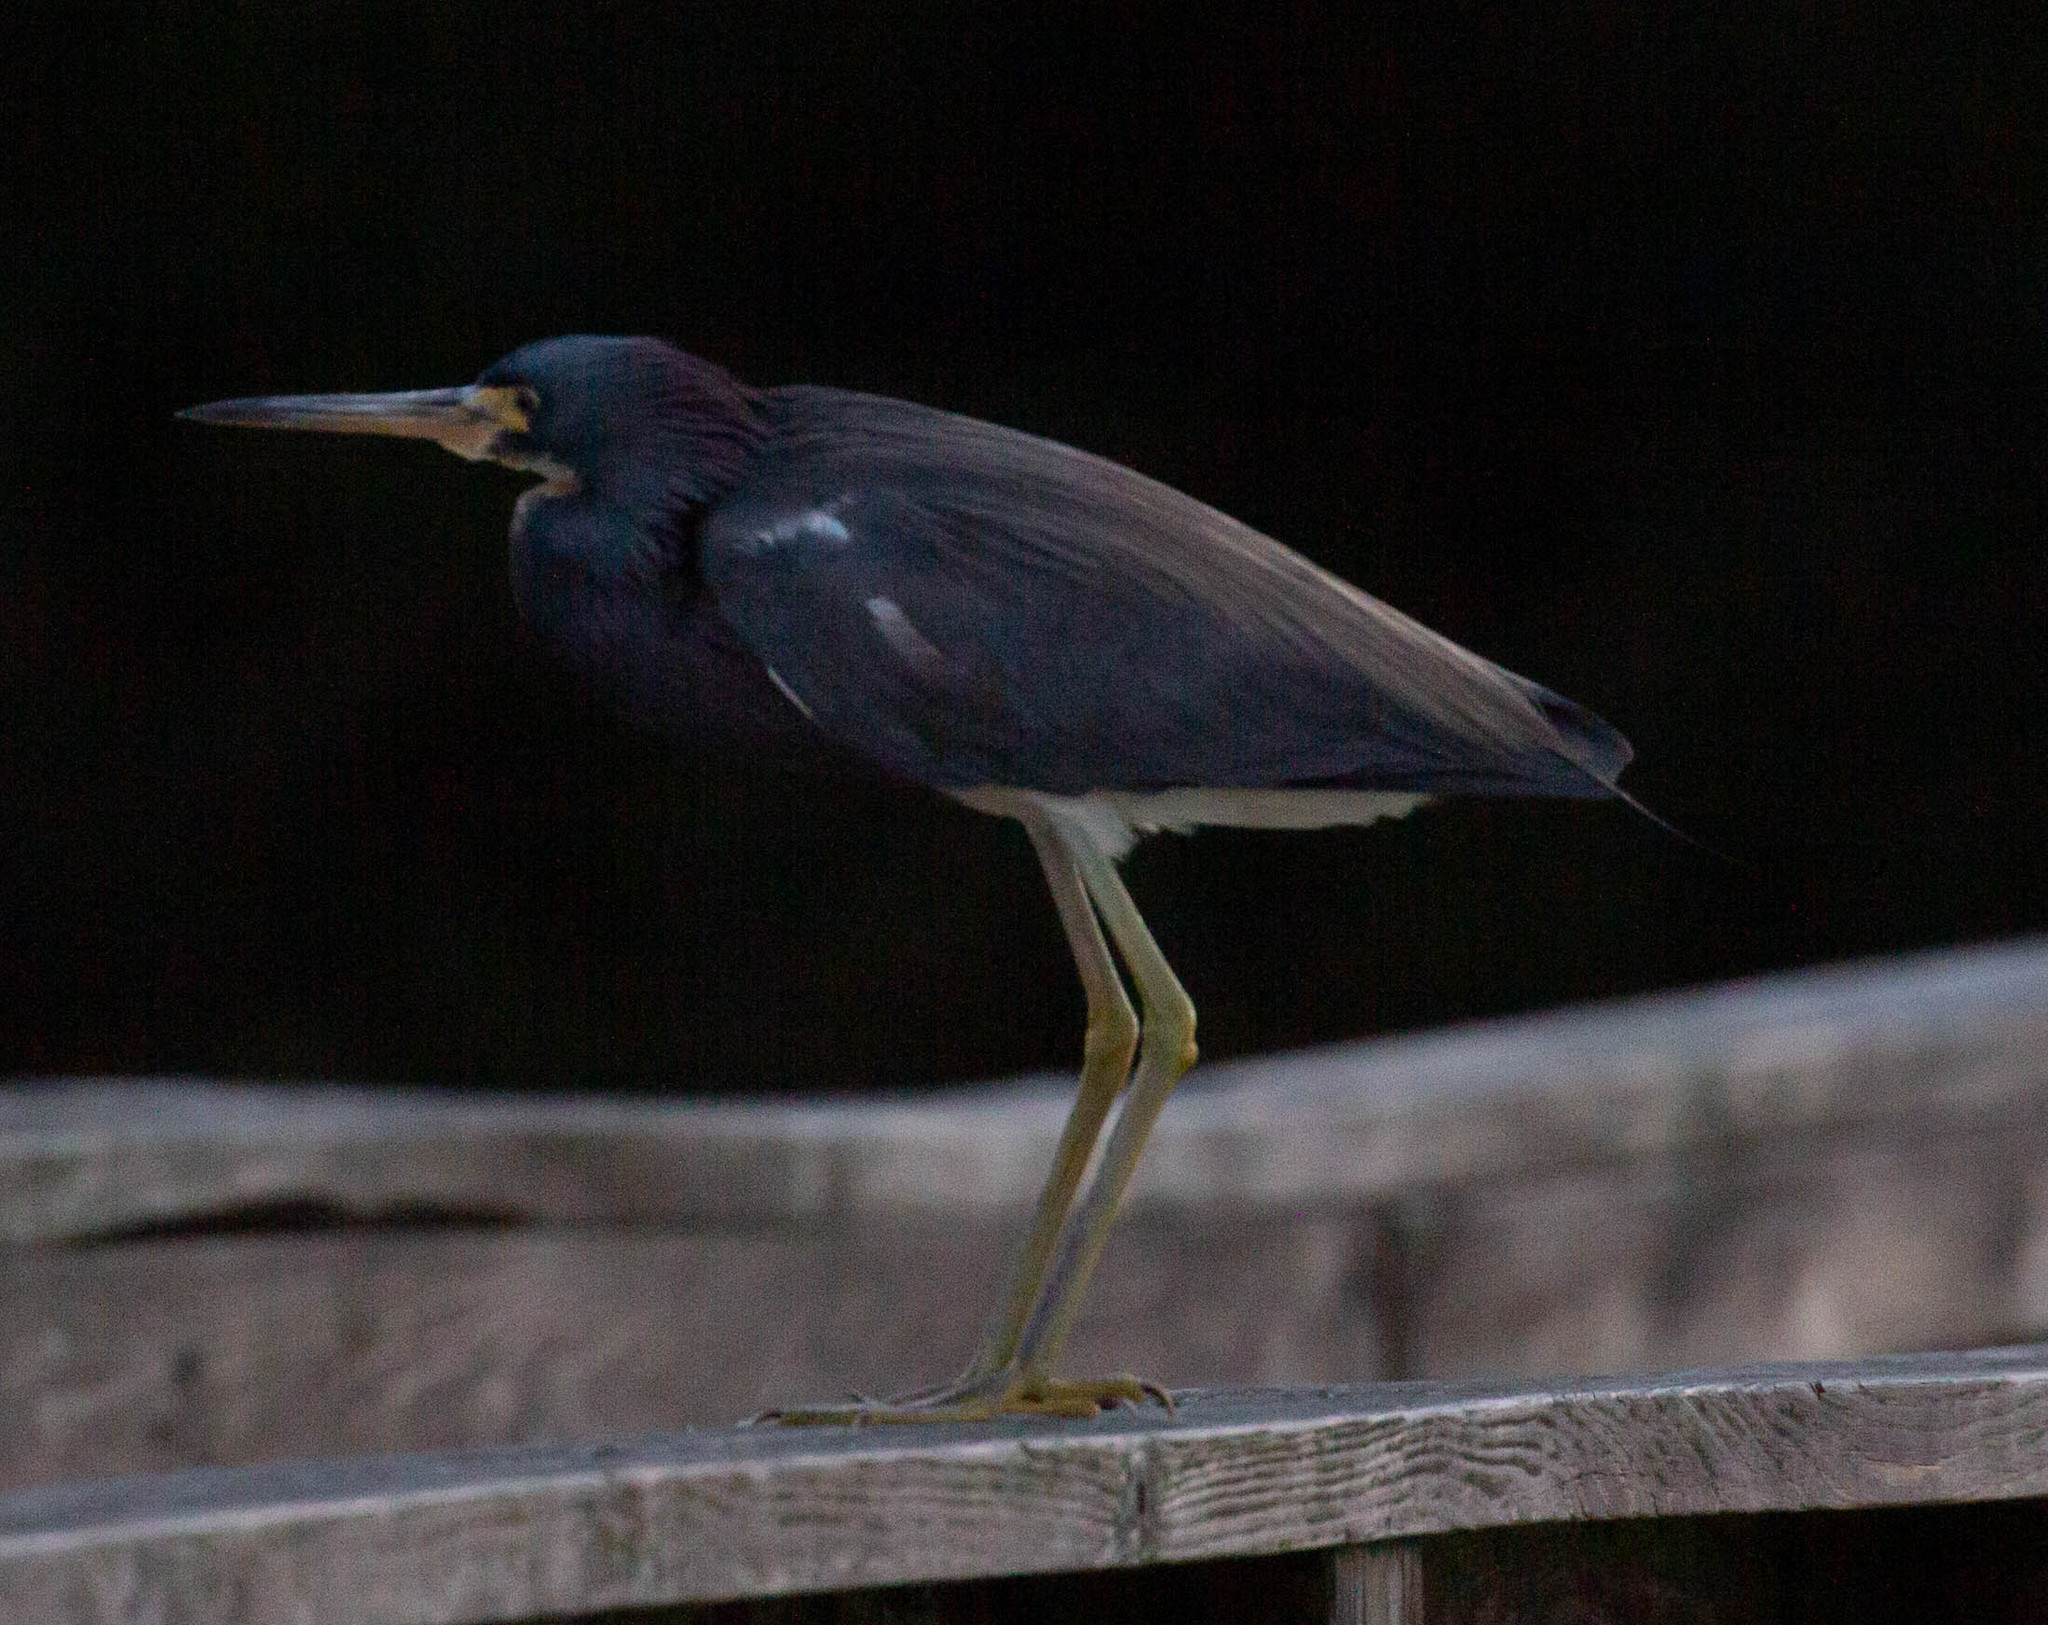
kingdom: Animalia
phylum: Chordata
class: Aves
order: Pelecaniformes
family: Ardeidae
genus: Egretta
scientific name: Egretta tricolor
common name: Tricolored heron
